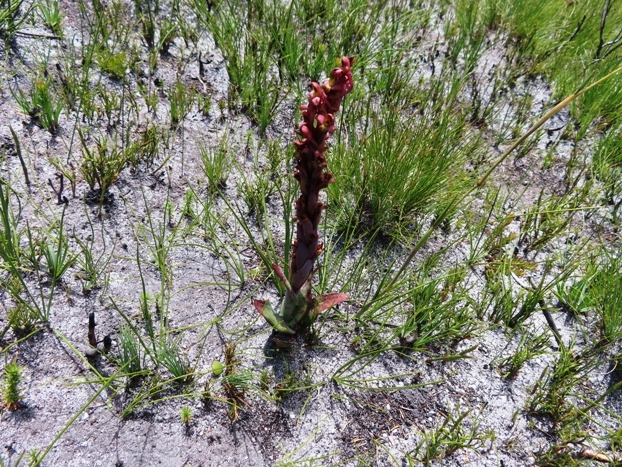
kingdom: Plantae
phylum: Tracheophyta
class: Liliopsida
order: Asparagales
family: Orchidaceae
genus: Disa
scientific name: Disa bolusiana
